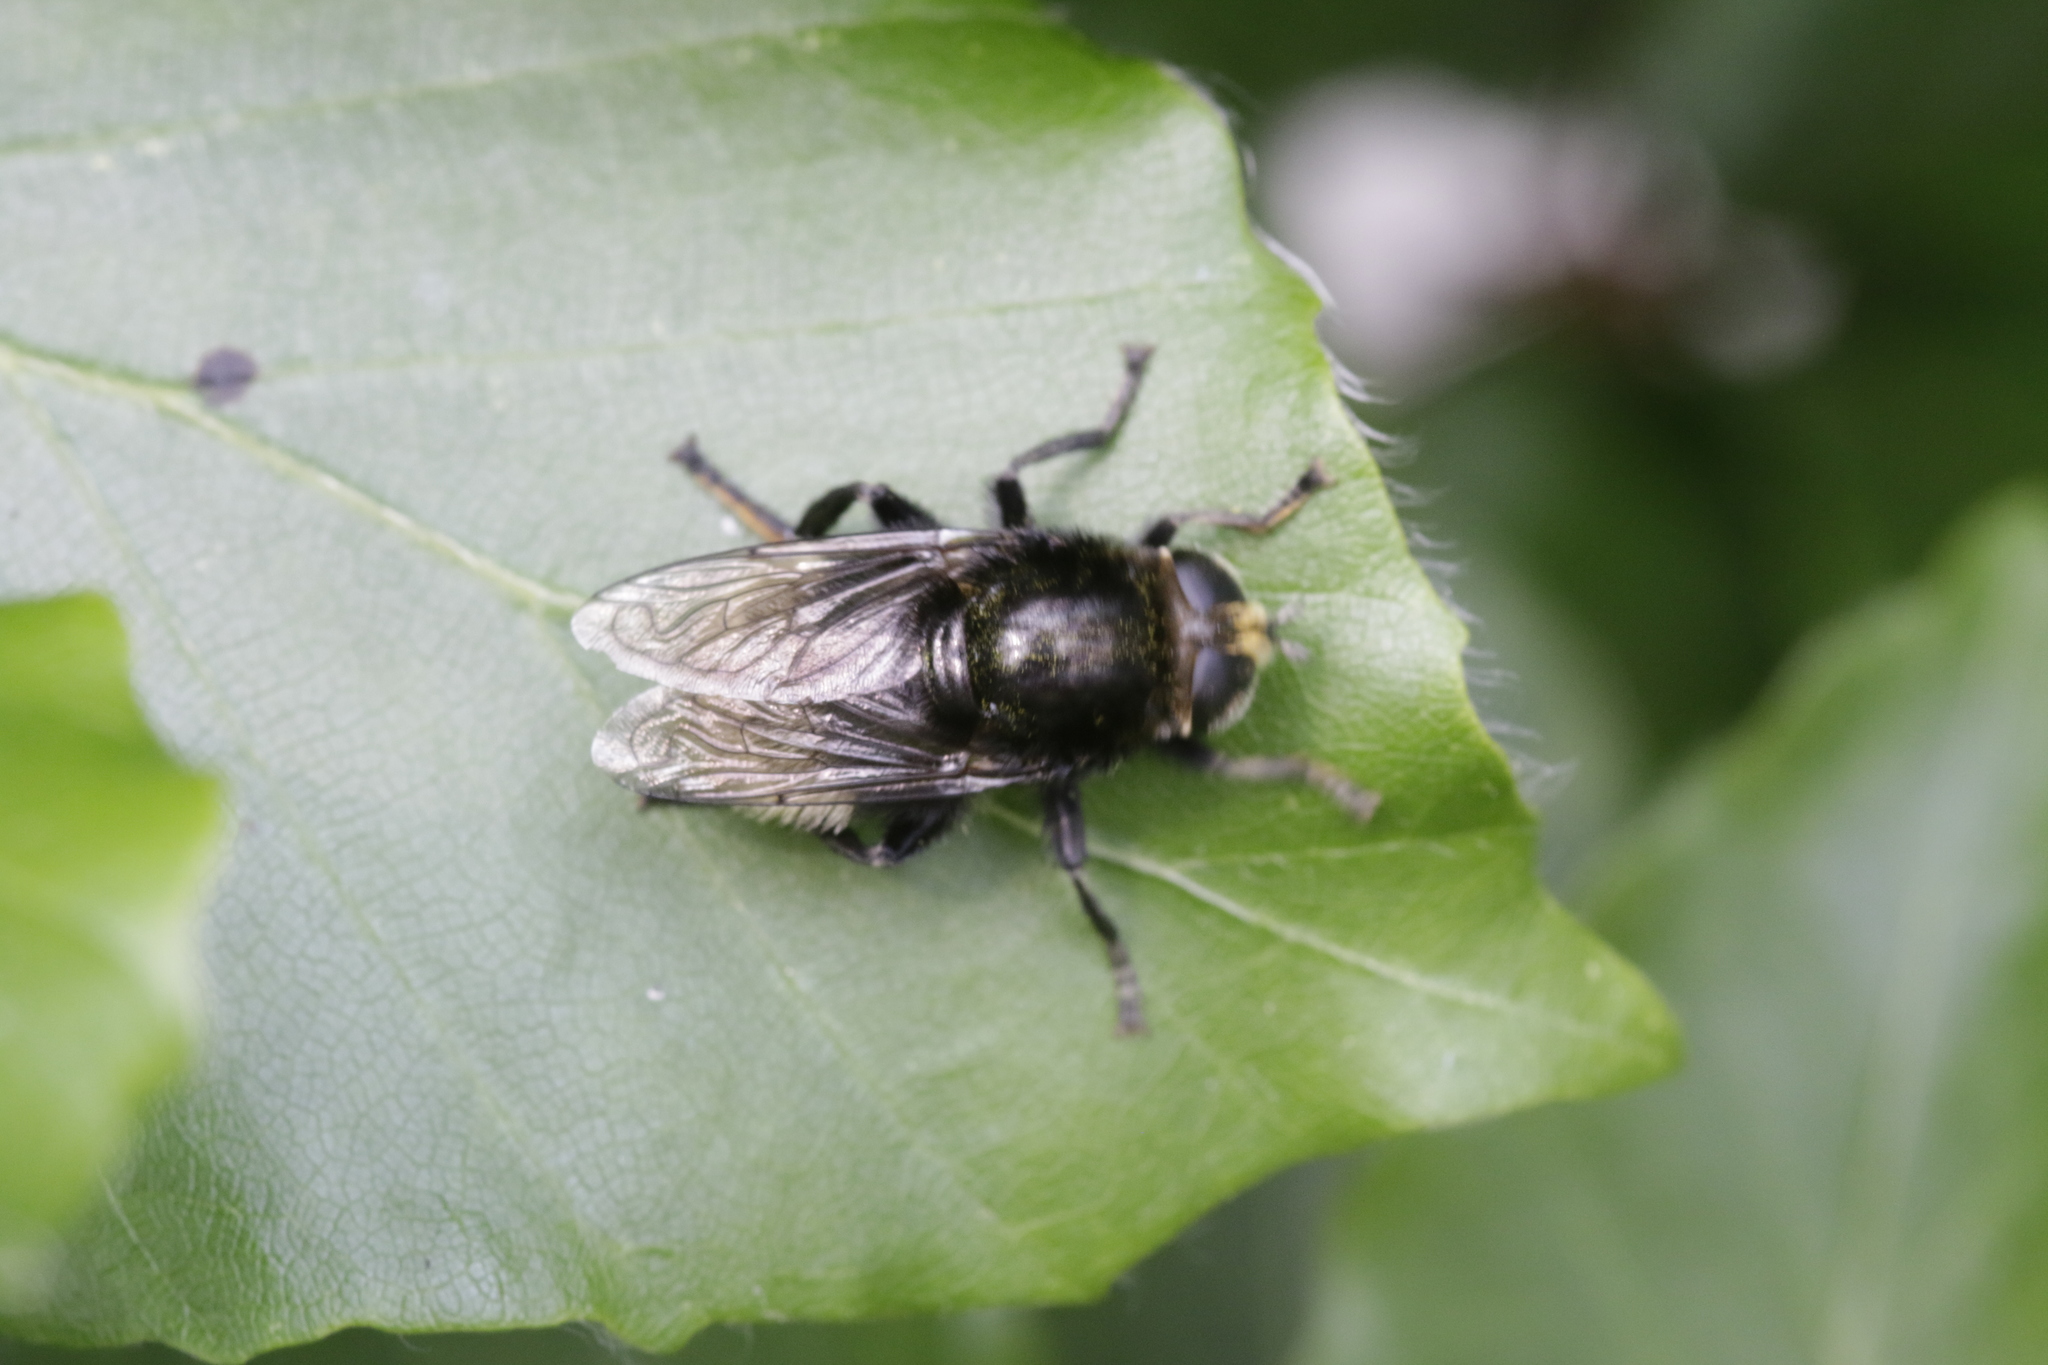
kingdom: Animalia
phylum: Arthropoda
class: Insecta
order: Diptera
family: Syrphidae
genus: Merodon
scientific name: Merodon equestris
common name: Greater bulb-fly
